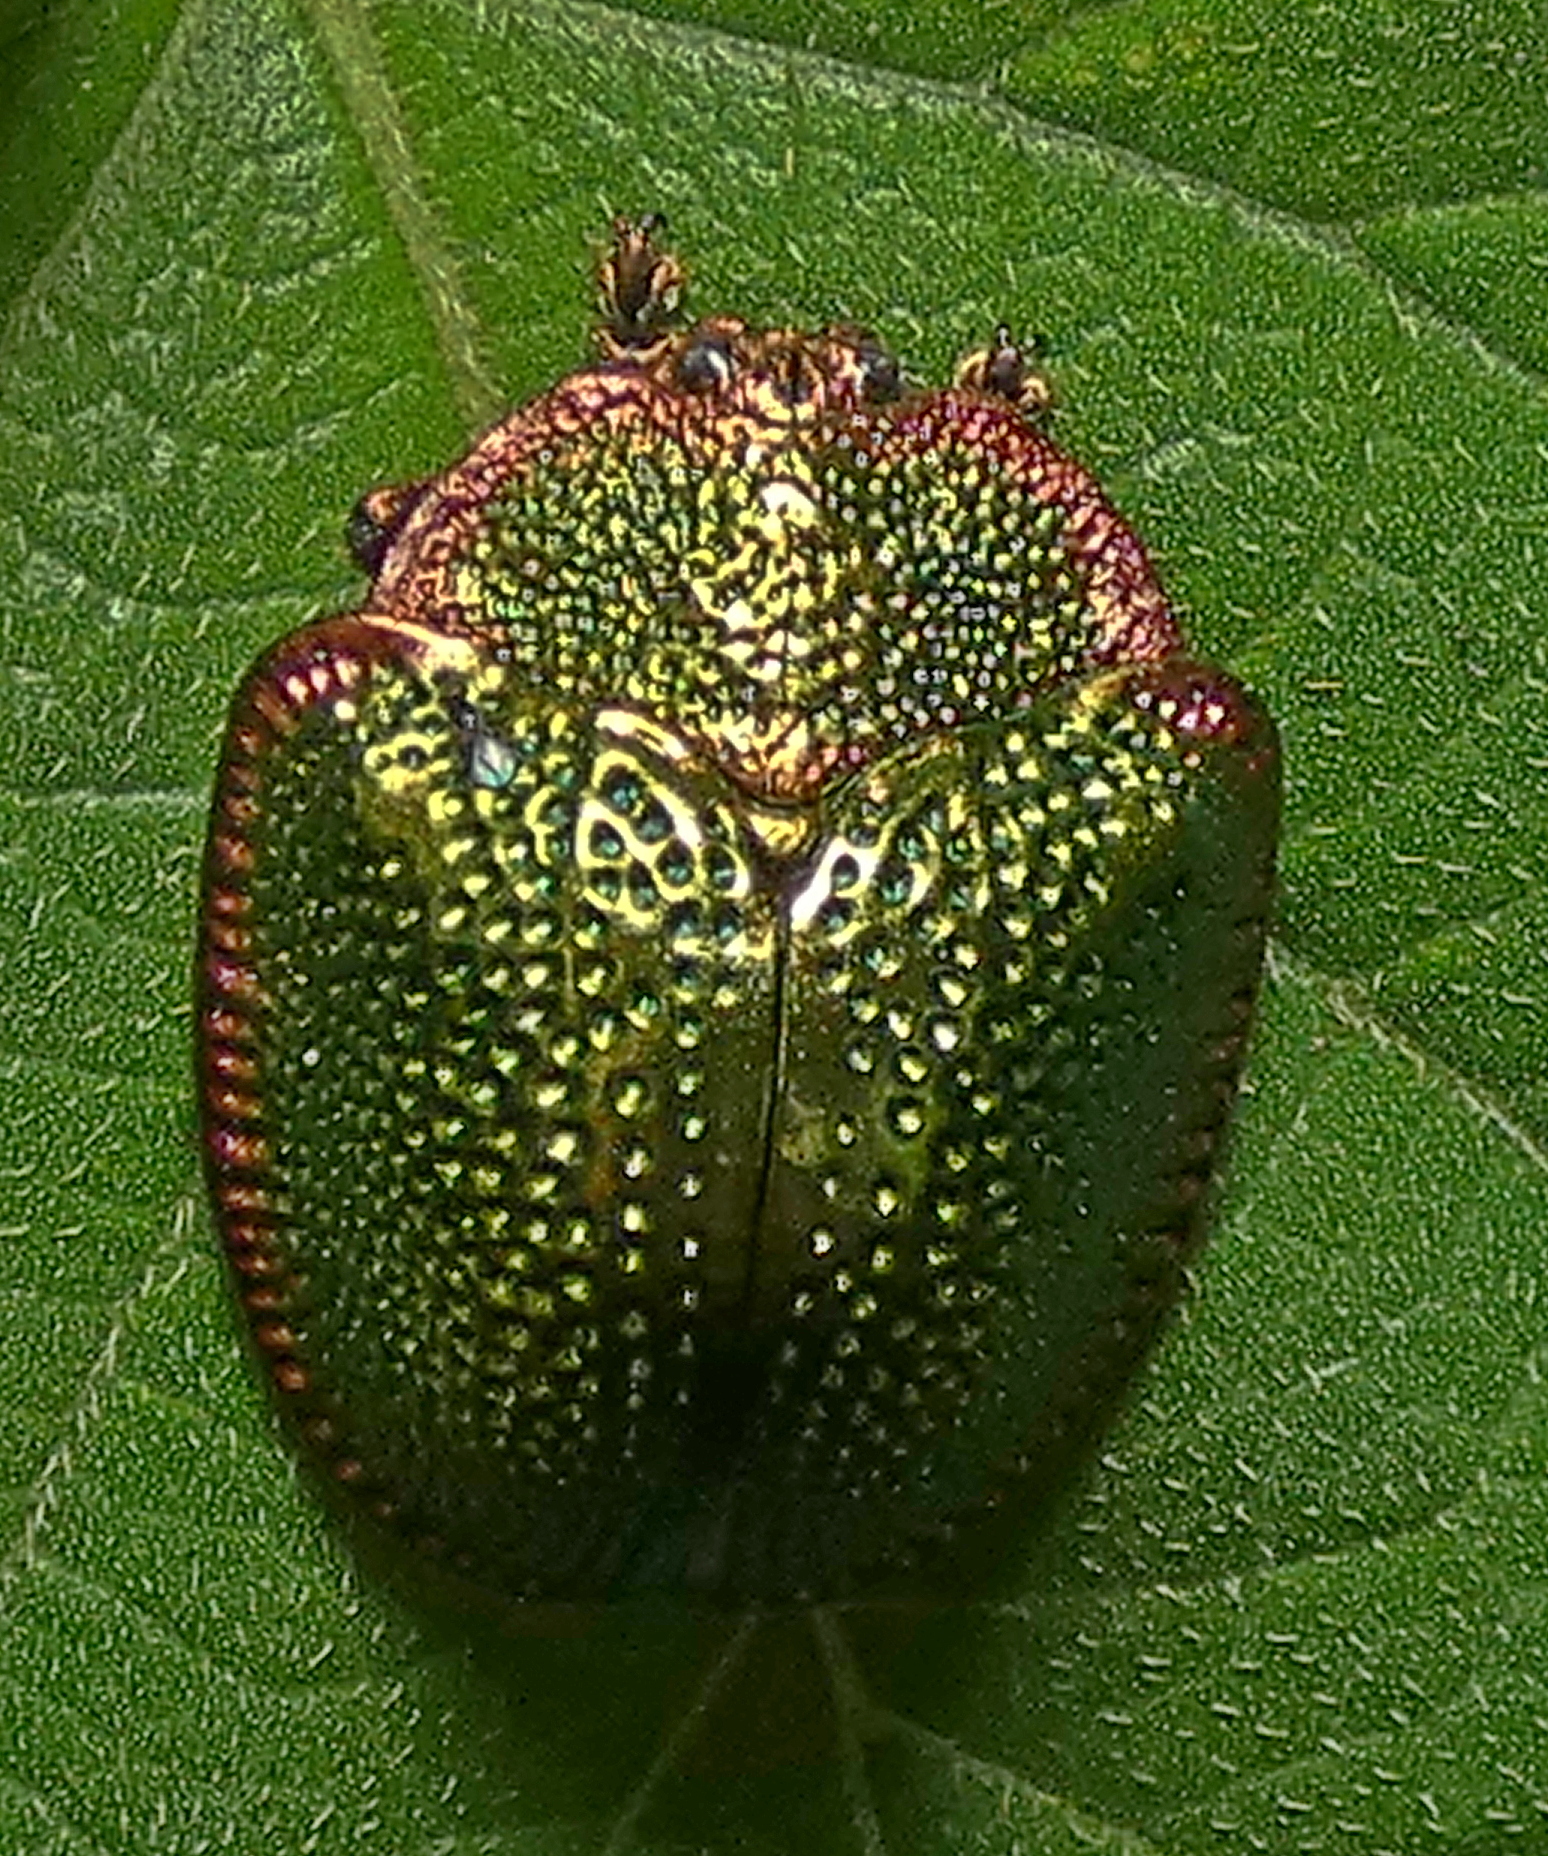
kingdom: Animalia
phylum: Arthropoda
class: Insecta
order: Coleoptera
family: Chrysomelidae
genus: Polychalca
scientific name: Polychalca punctatissima
